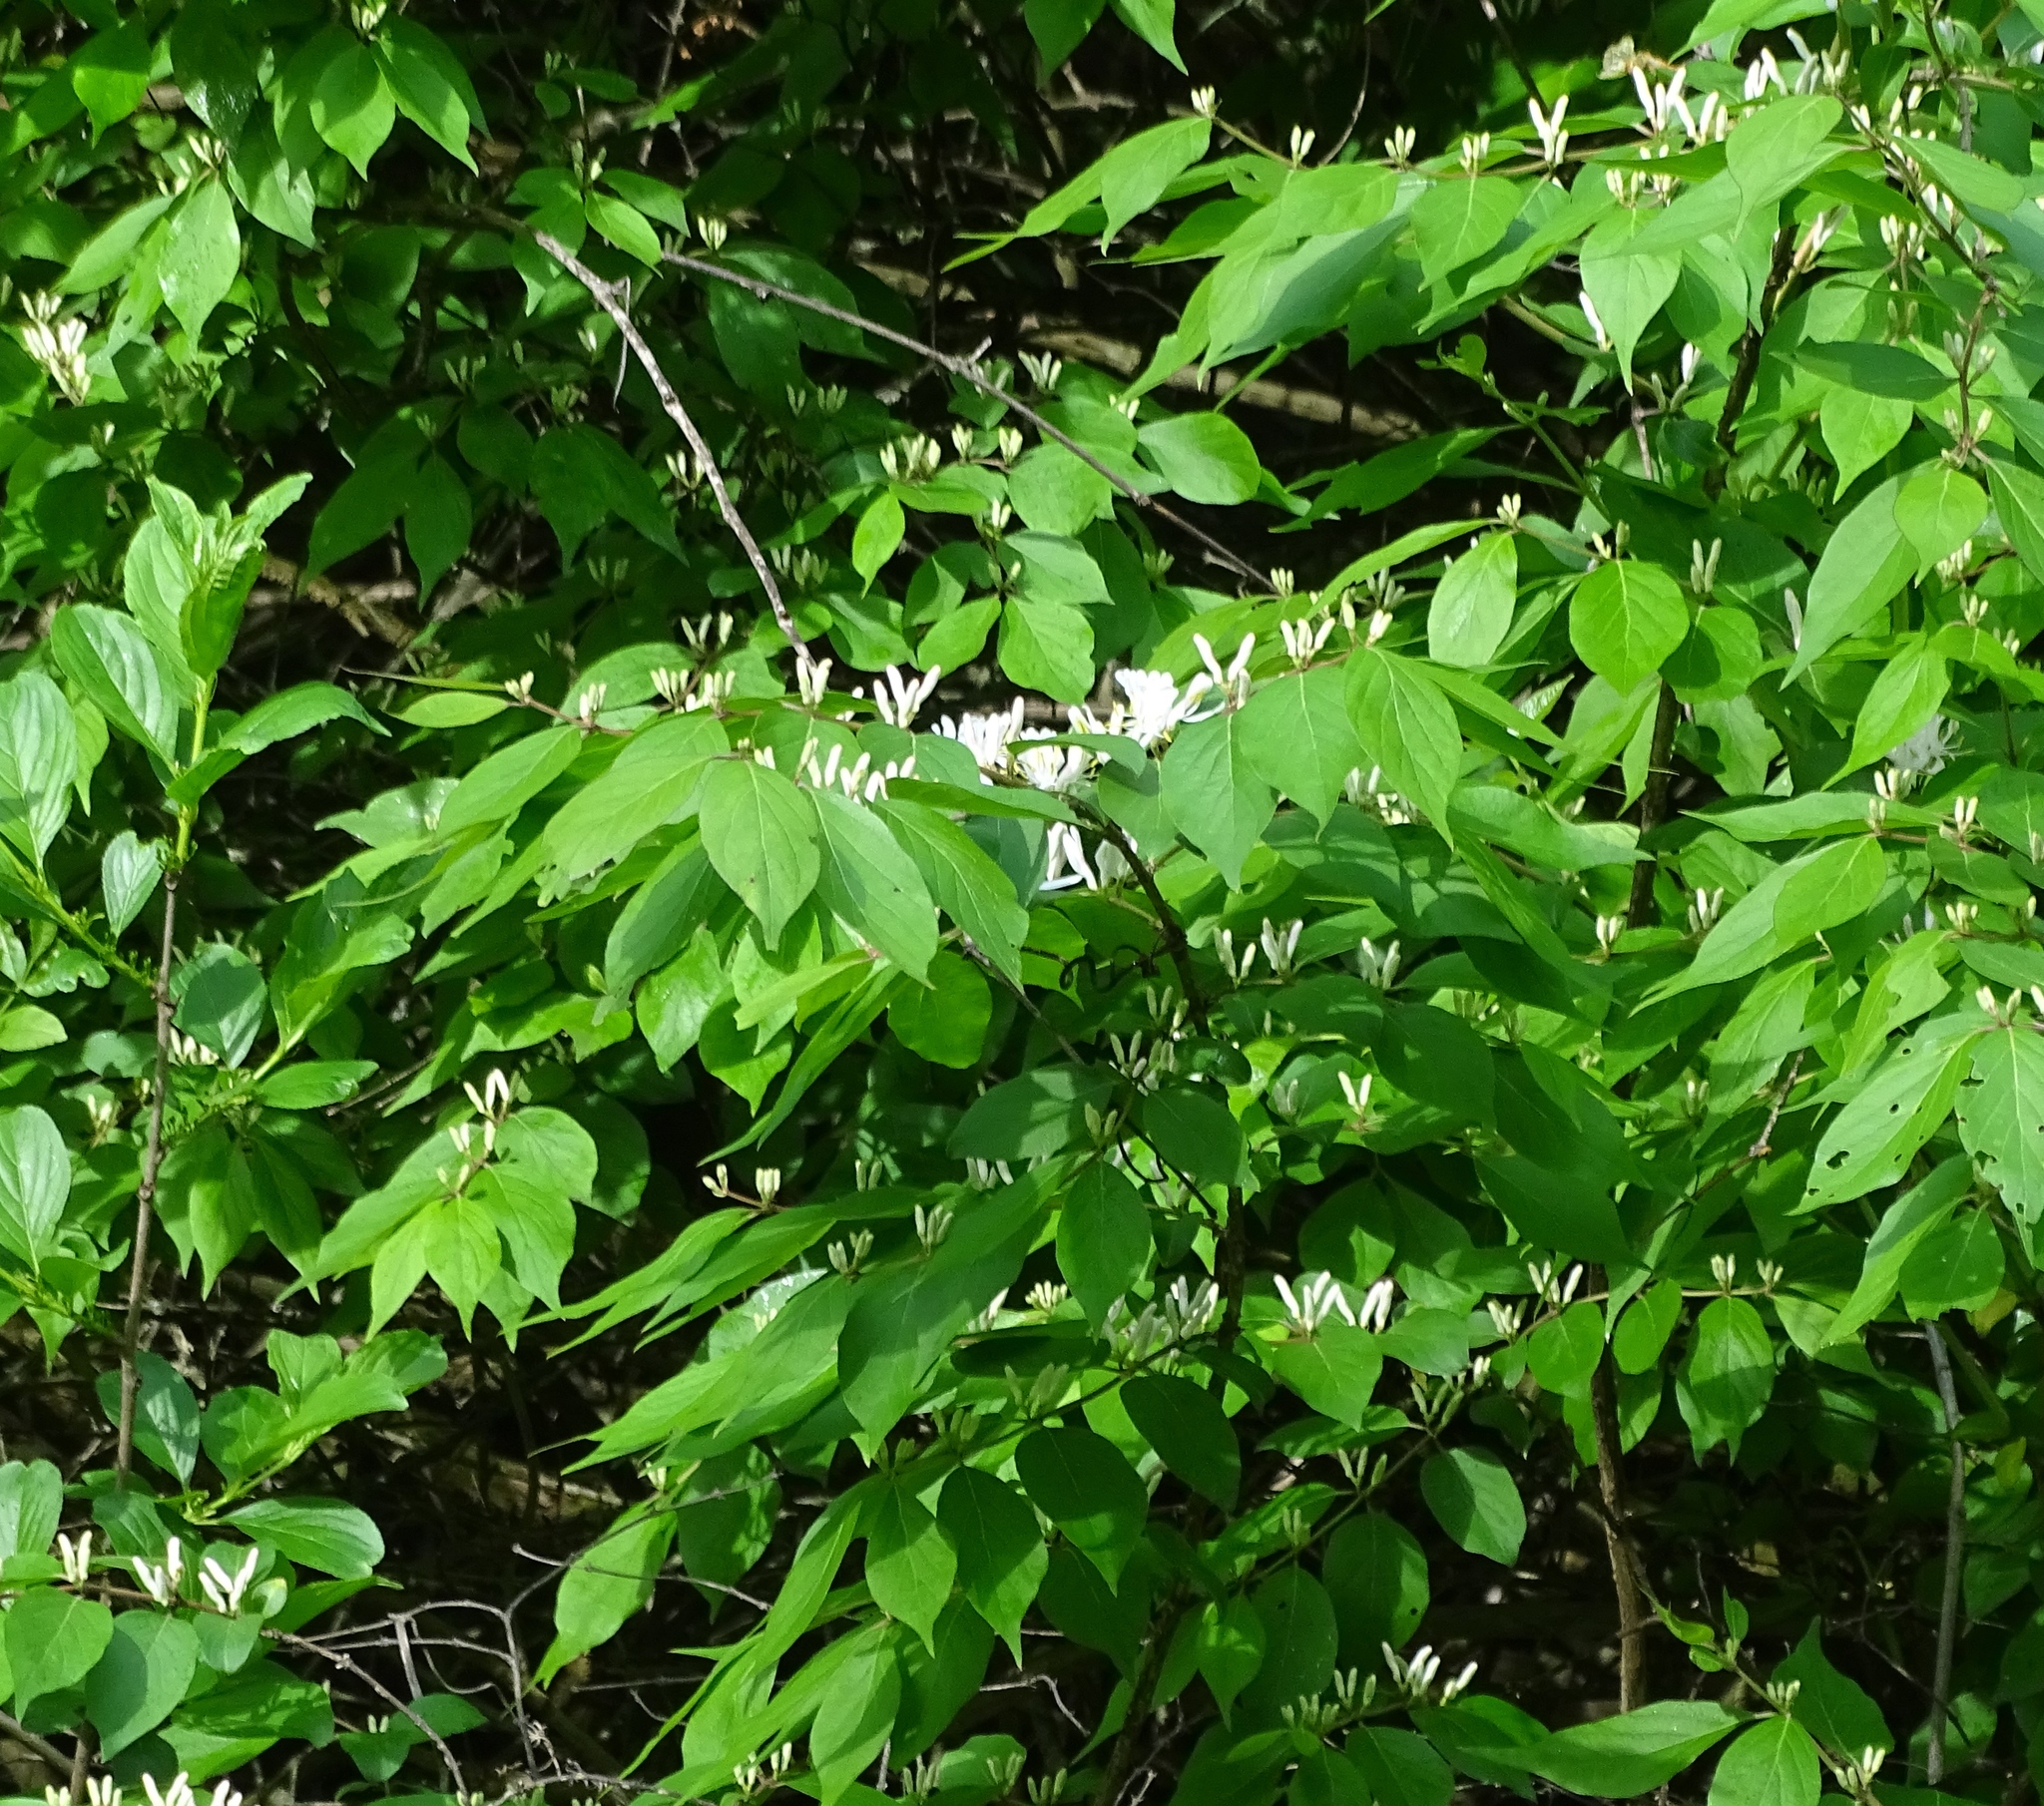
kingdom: Plantae
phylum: Tracheophyta
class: Magnoliopsida
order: Dipsacales
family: Caprifoliaceae
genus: Lonicera
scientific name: Lonicera maackii
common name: Amur honeysuckle
